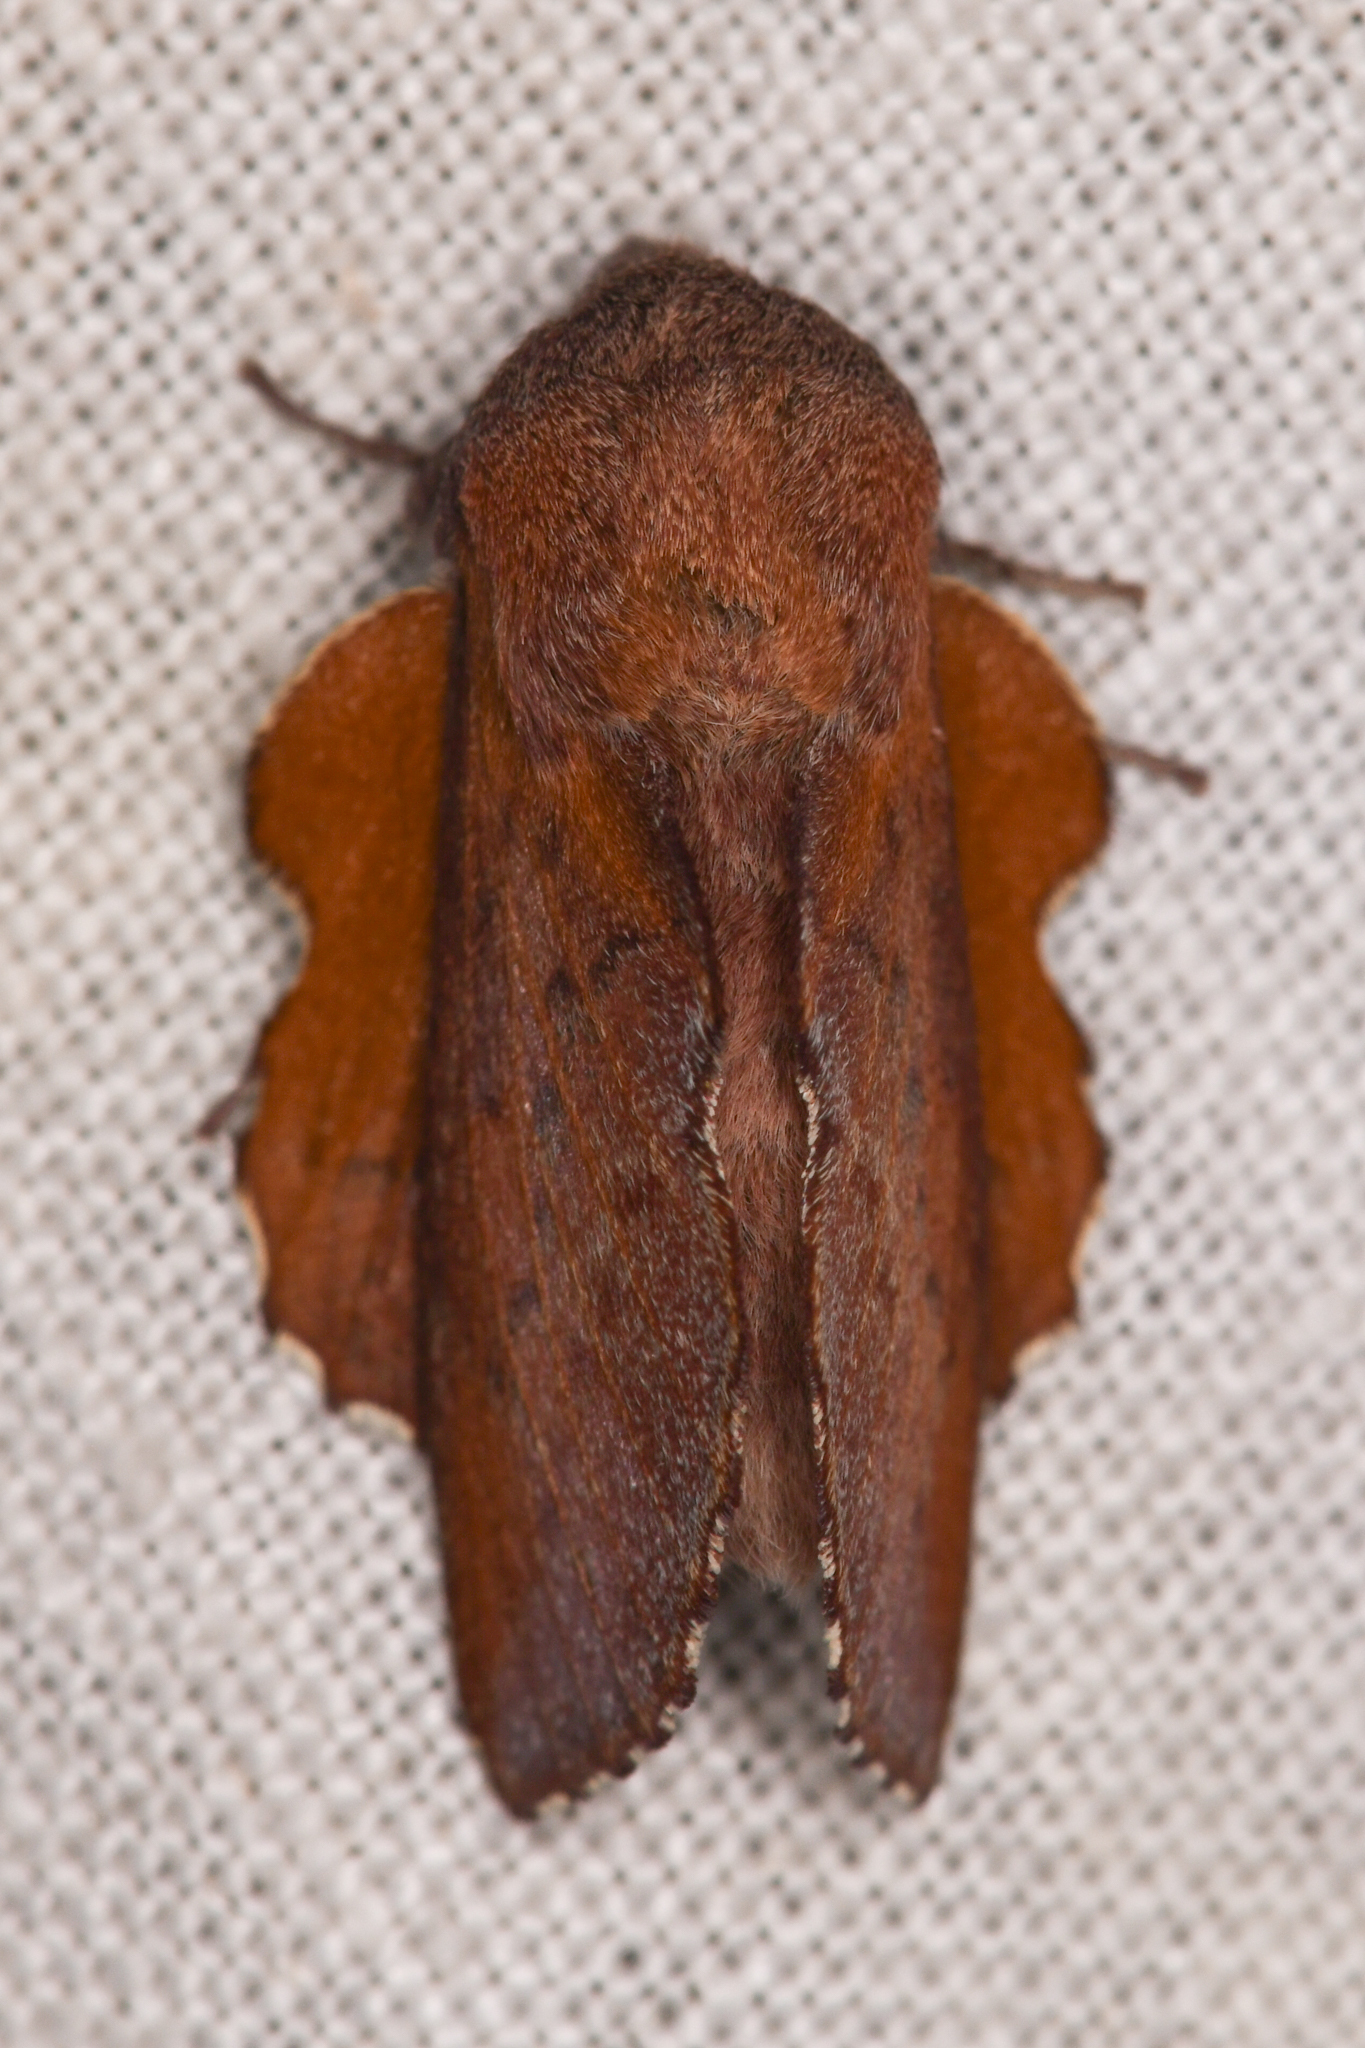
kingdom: Animalia
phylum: Arthropoda
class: Insecta
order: Lepidoptera
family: Lasiocampidae
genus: Phyllodesma
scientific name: Phyllodesma americana
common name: American lappet moth
